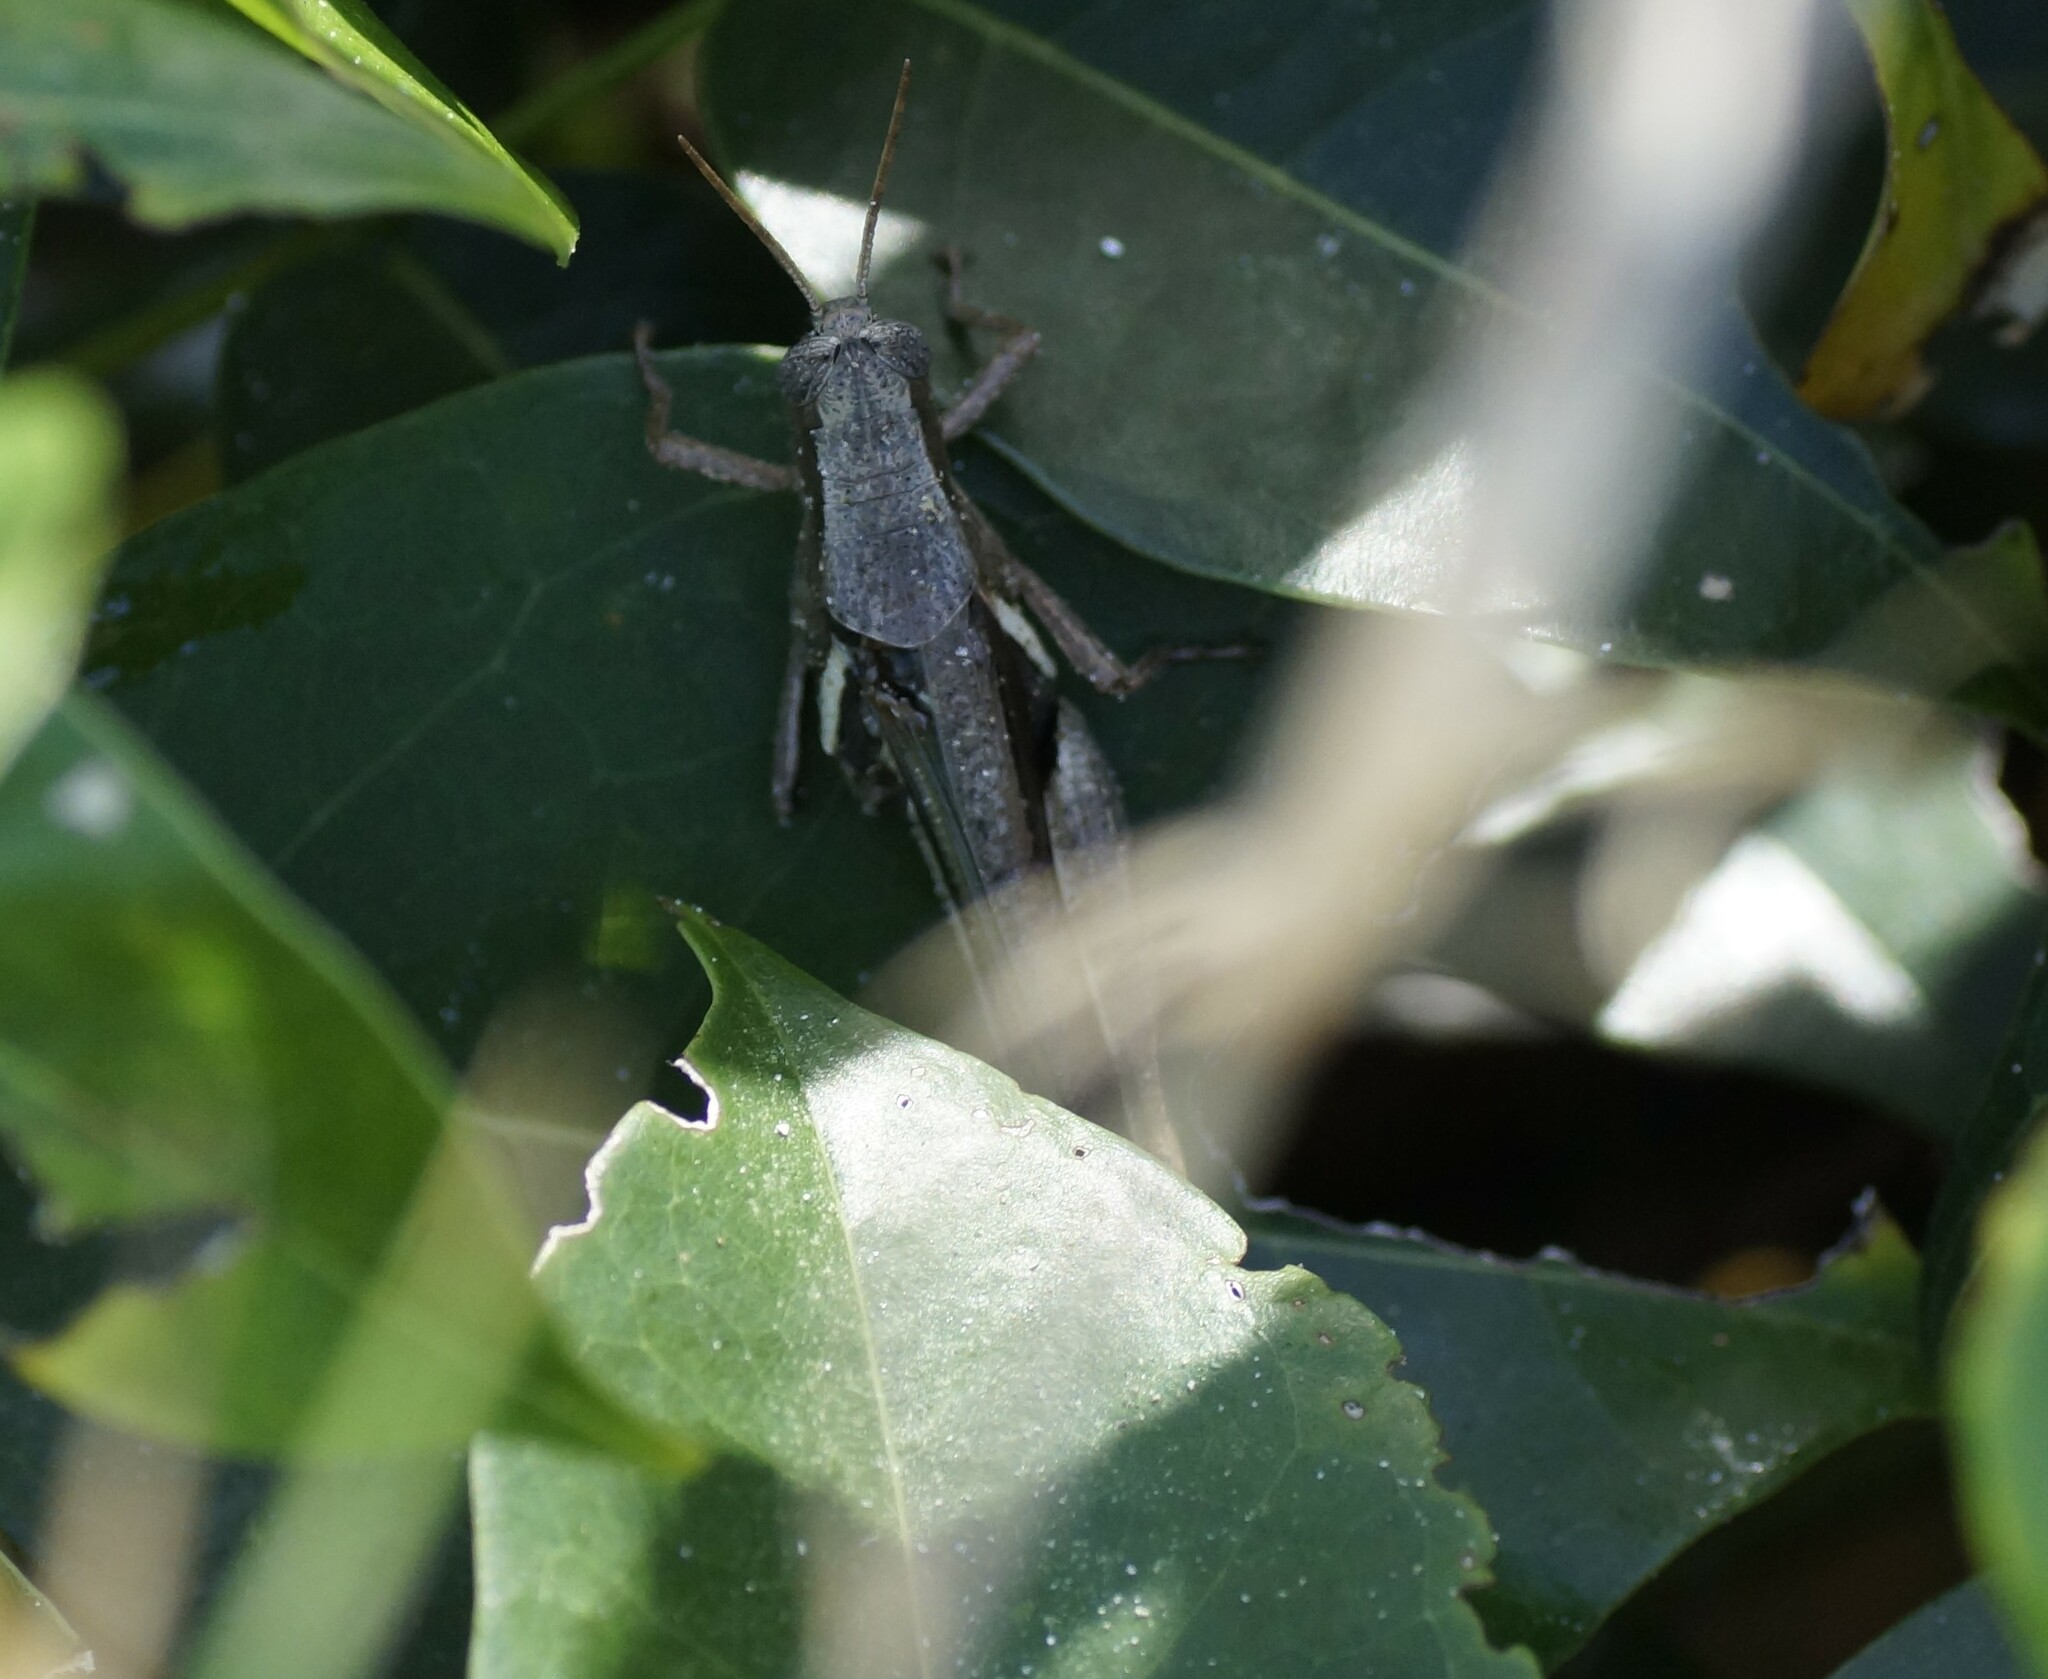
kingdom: Animalia
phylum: Arthropoda
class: Insecta
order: Orthoptera
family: Acrididae
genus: Stenocatantops
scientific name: Stenocatantops angustifrons
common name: Common tropical sharptail
